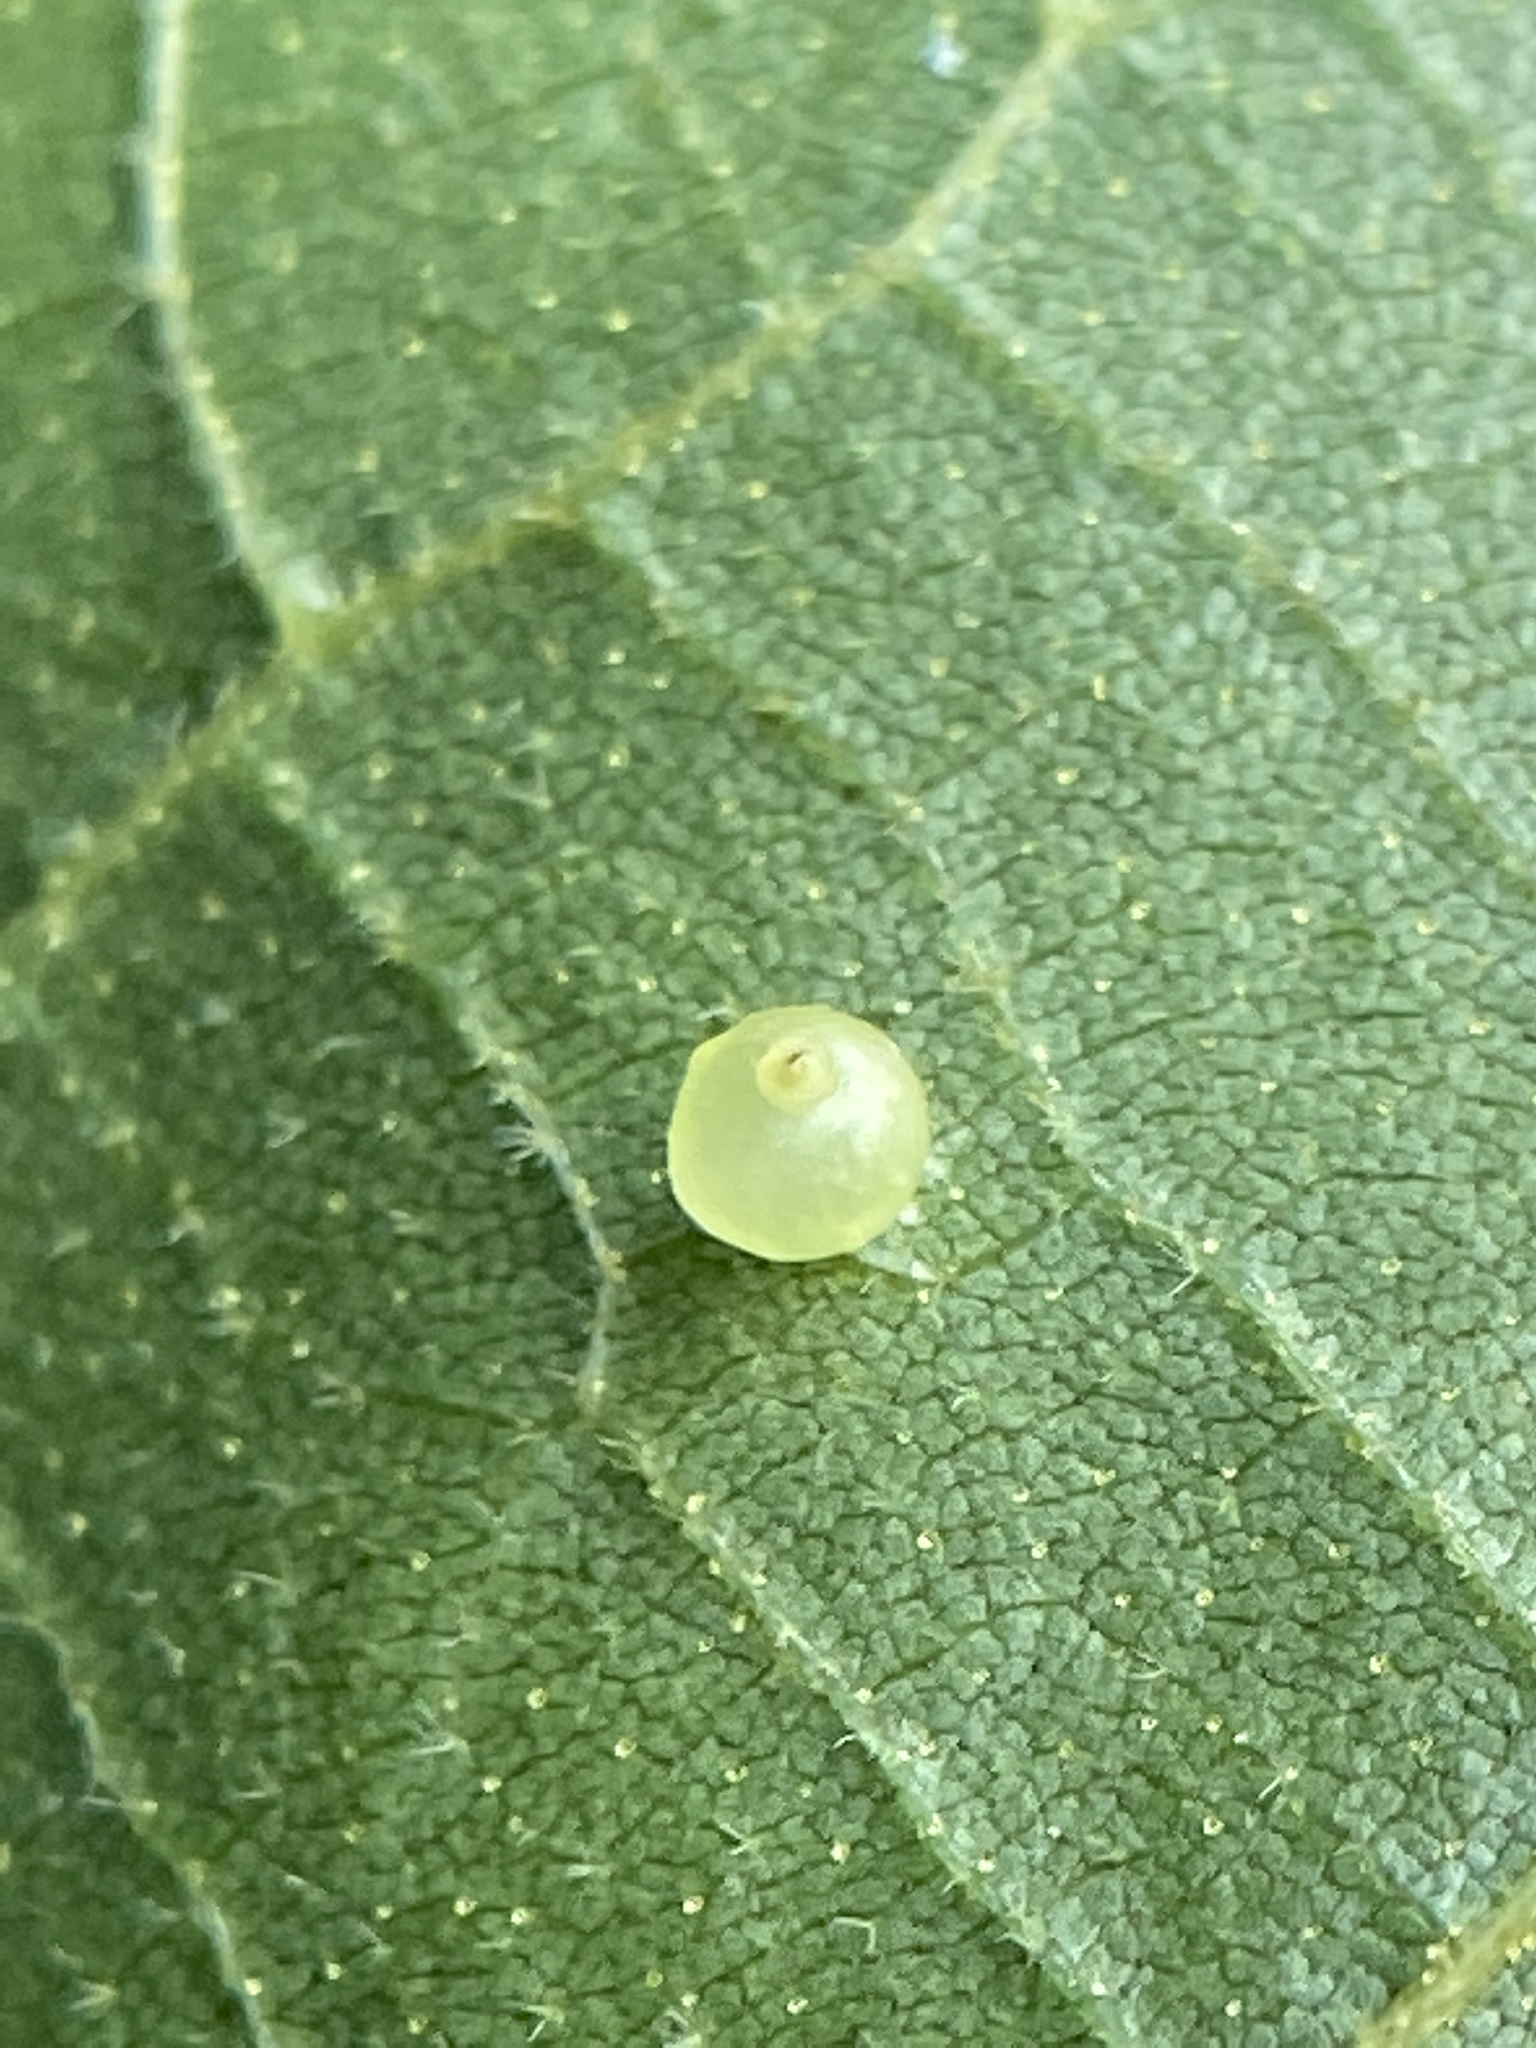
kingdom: Animalia
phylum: Arthropoda
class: Insecta
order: Diptera
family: Cecidomyiidae
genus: Caryomyia
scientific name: Caryomyia leviglobus
